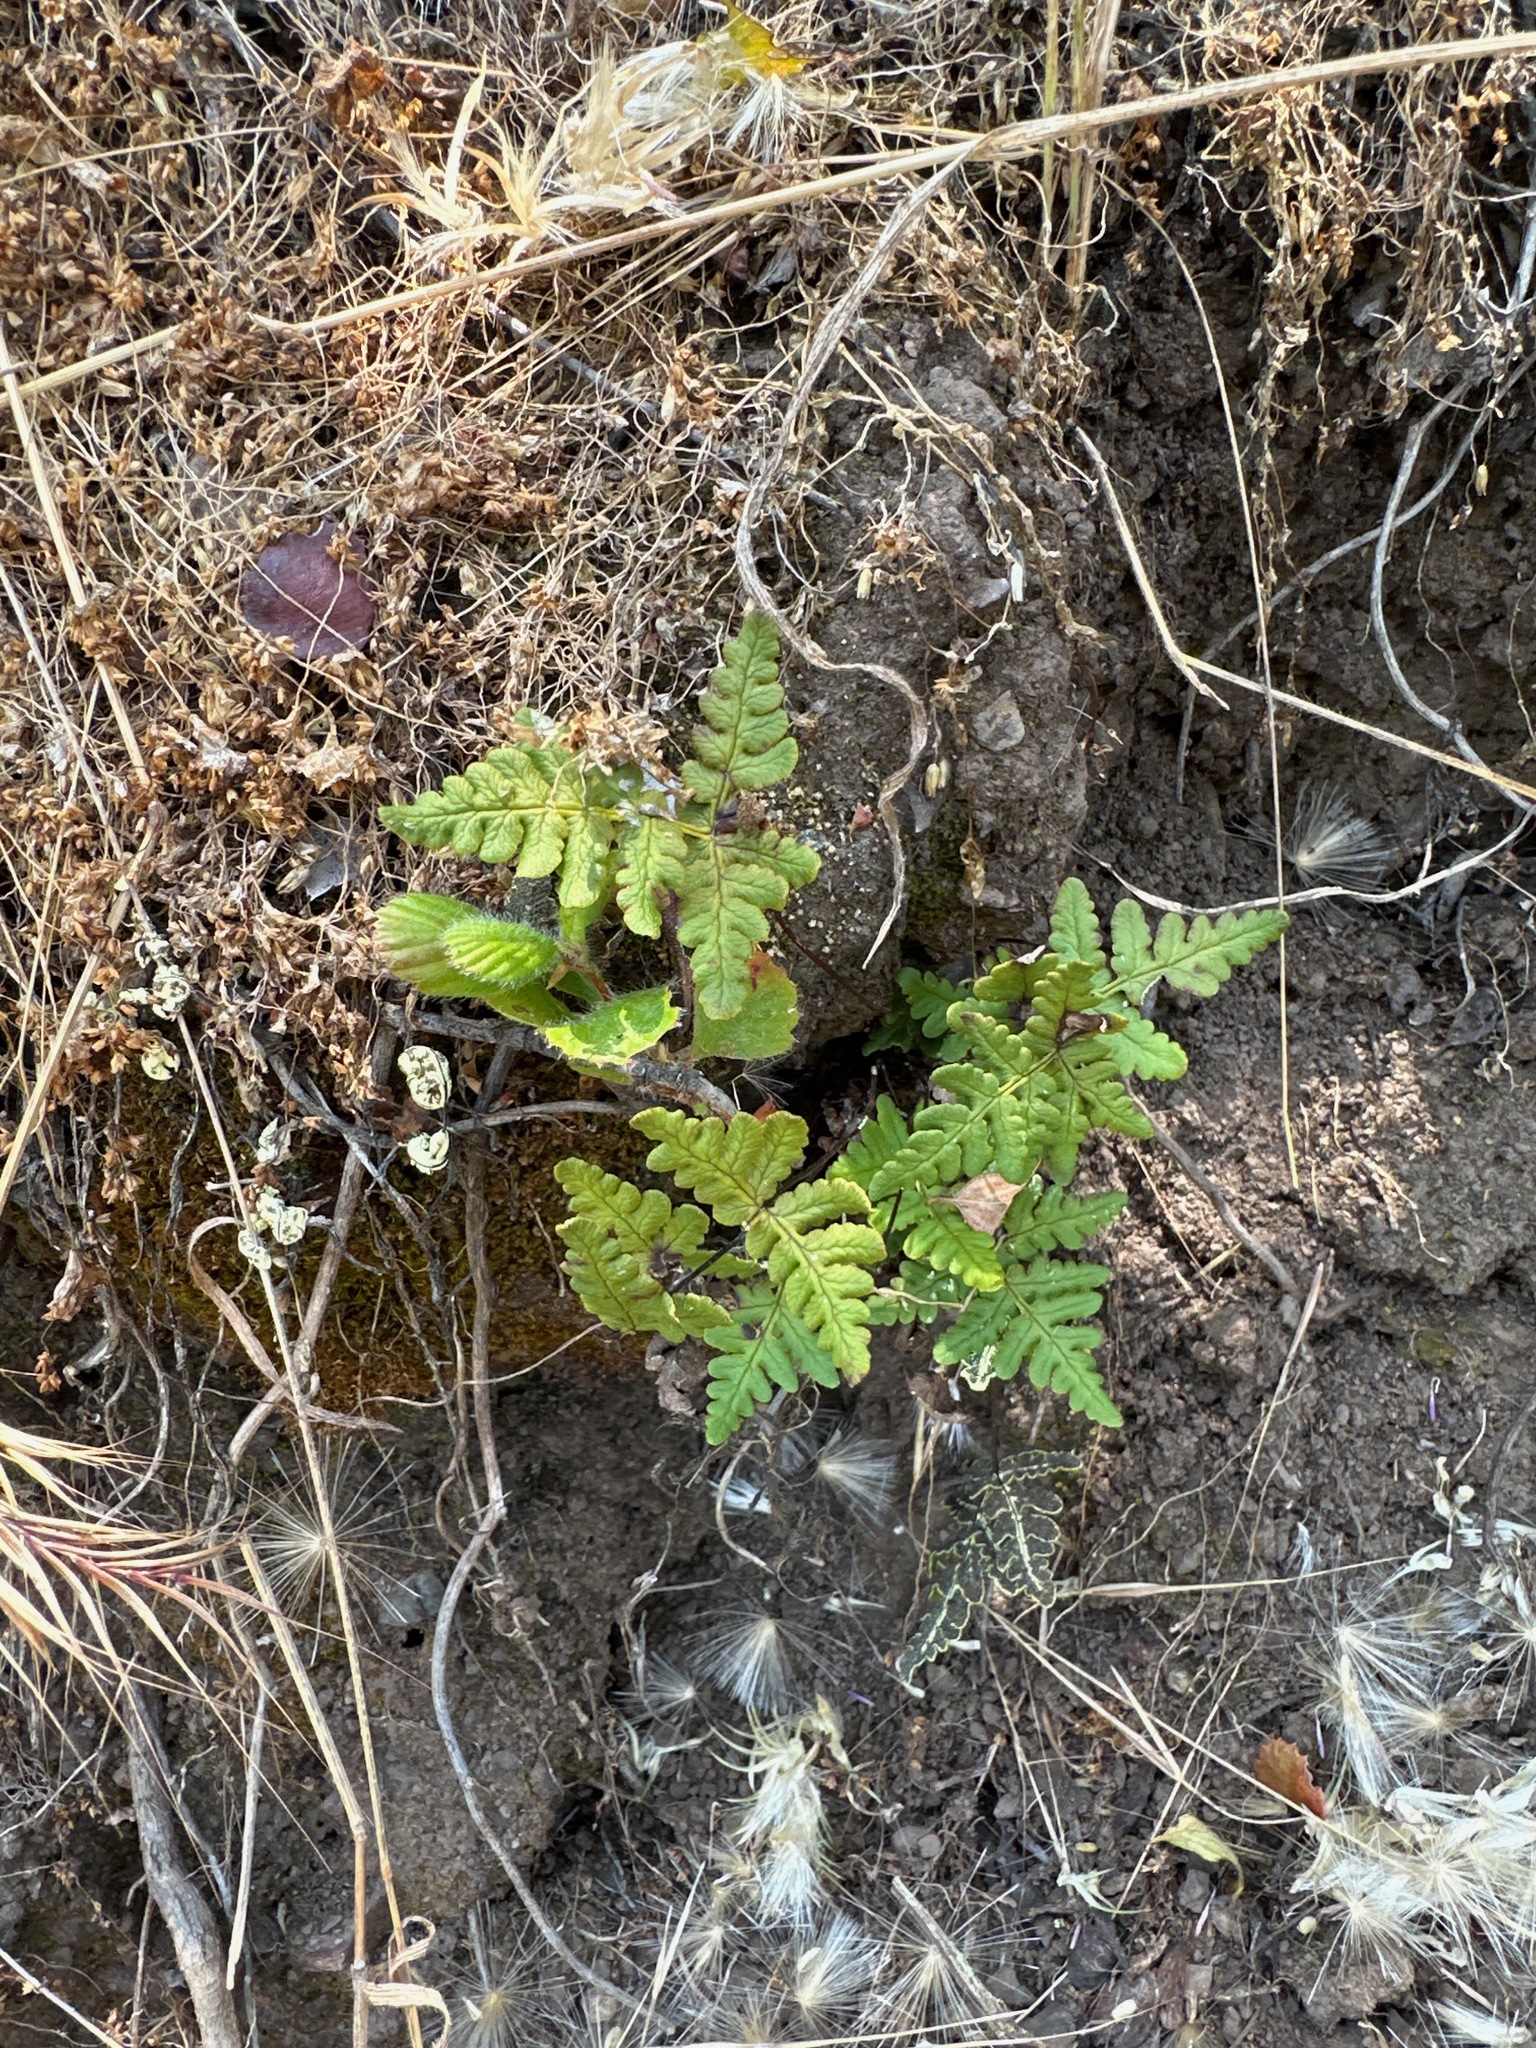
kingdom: Plantae
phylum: Tracheophyta
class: Polypodiopsida
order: Polypodiales
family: Pteridaceae
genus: Pentagramma
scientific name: Pentagramma triangularis
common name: Gold fern
